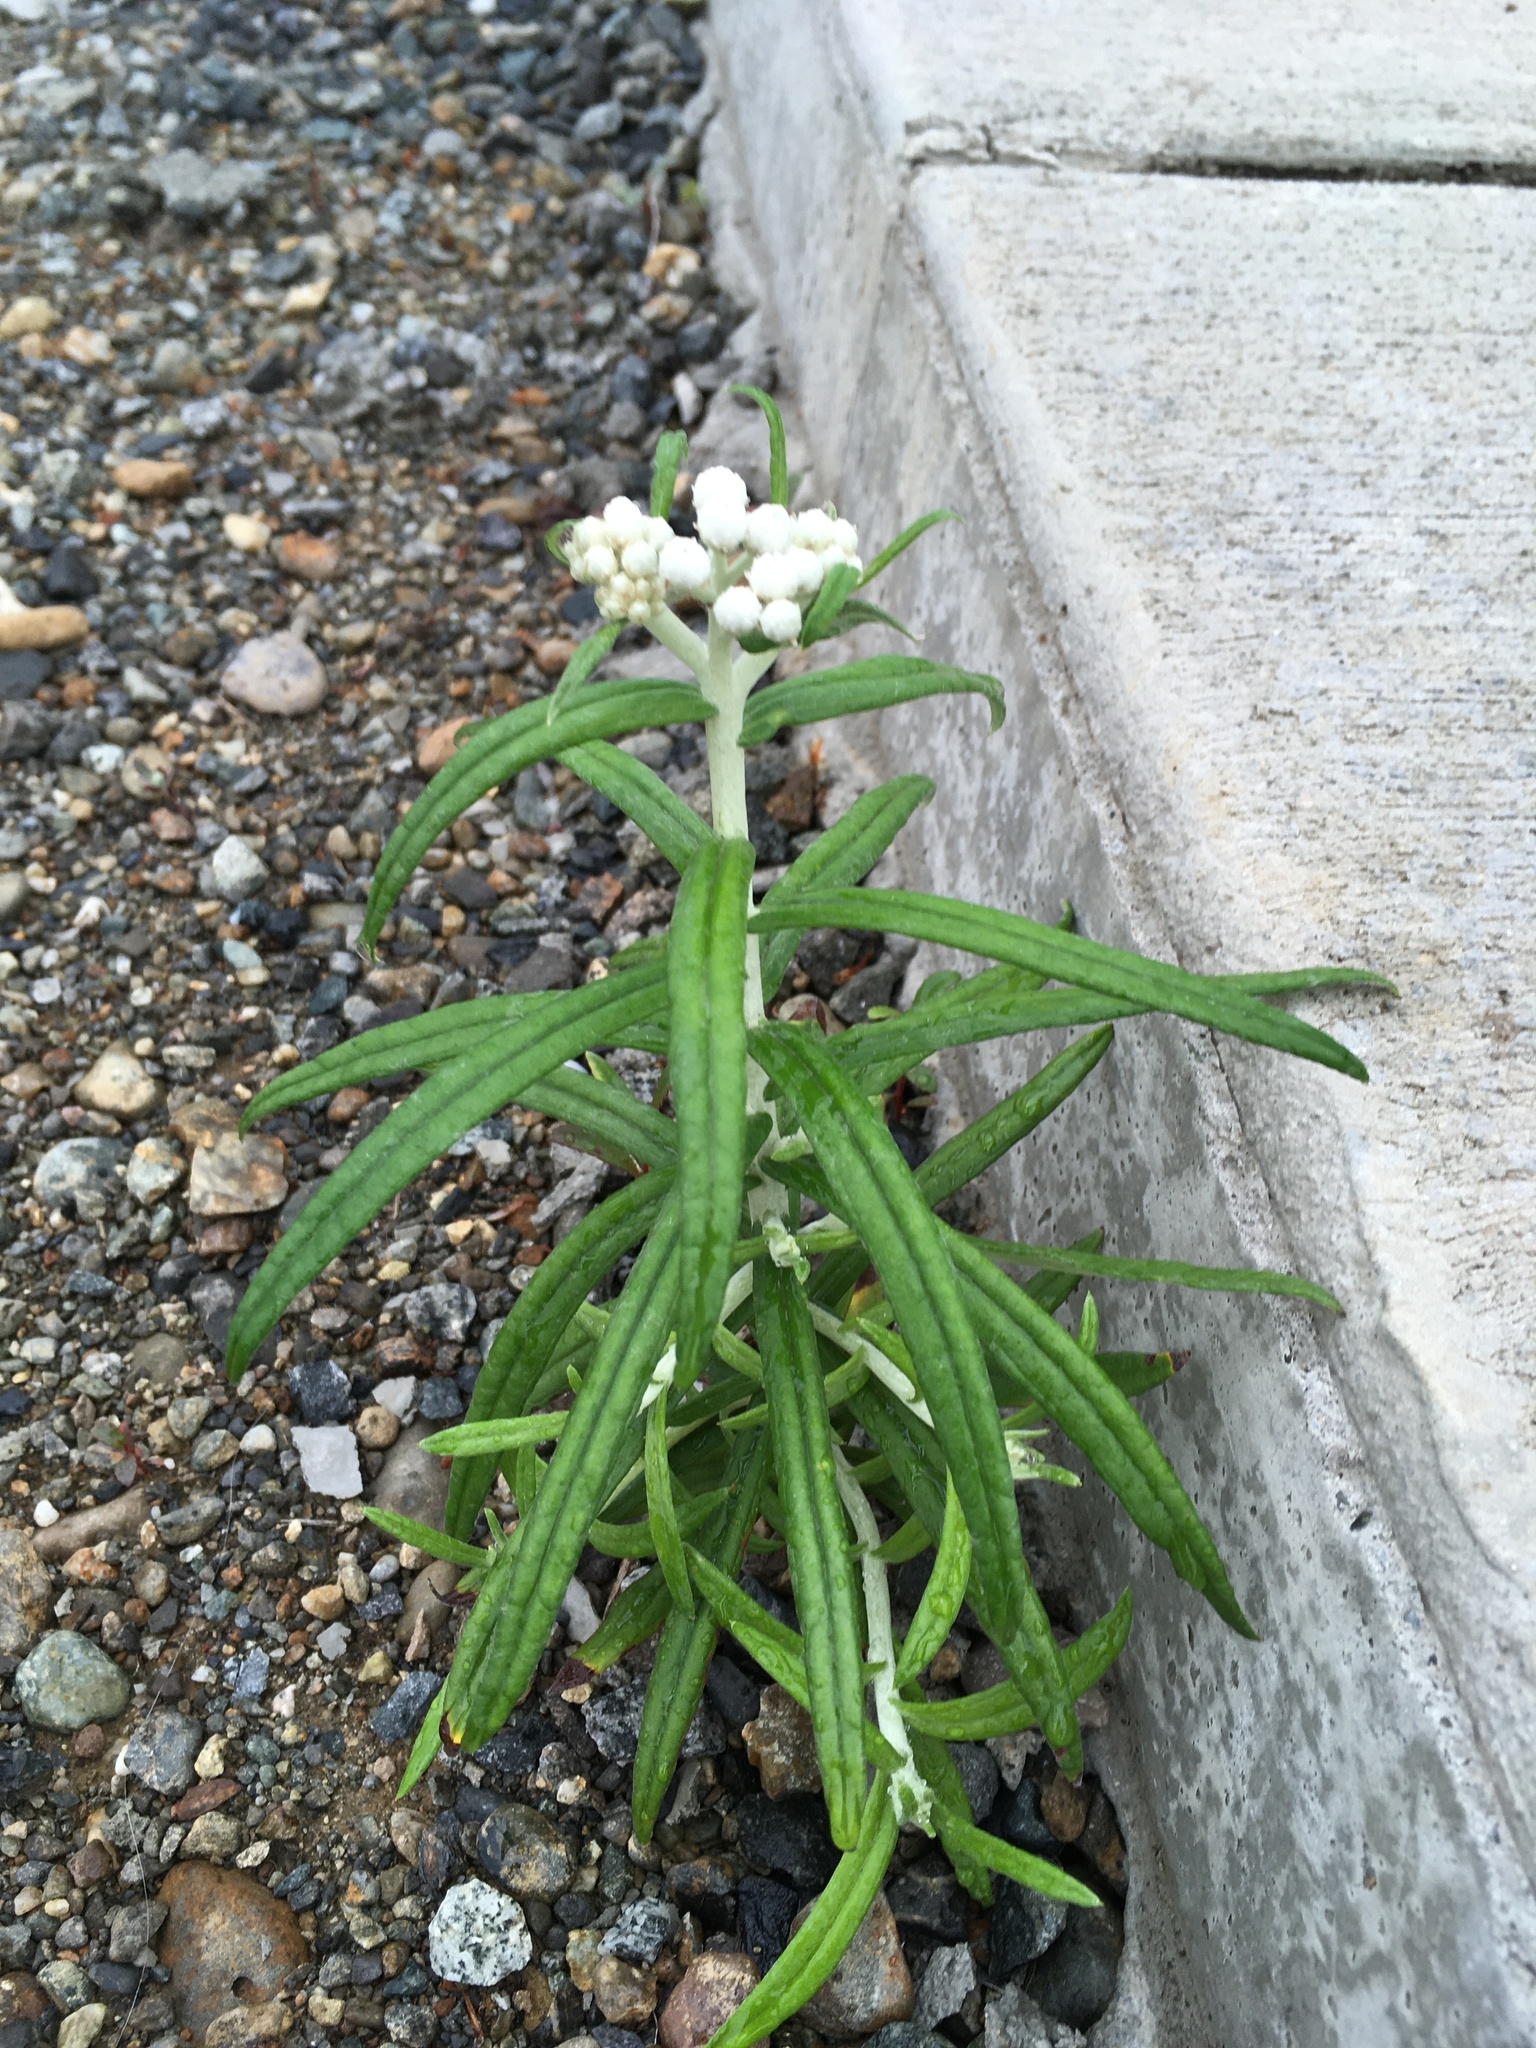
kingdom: Plantae
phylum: Tracheophyta
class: Magnoliopsida
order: Asterales
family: Asteraceae
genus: Anaphalis
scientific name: Anaphalis margaritacea
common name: Pearly everlasting
